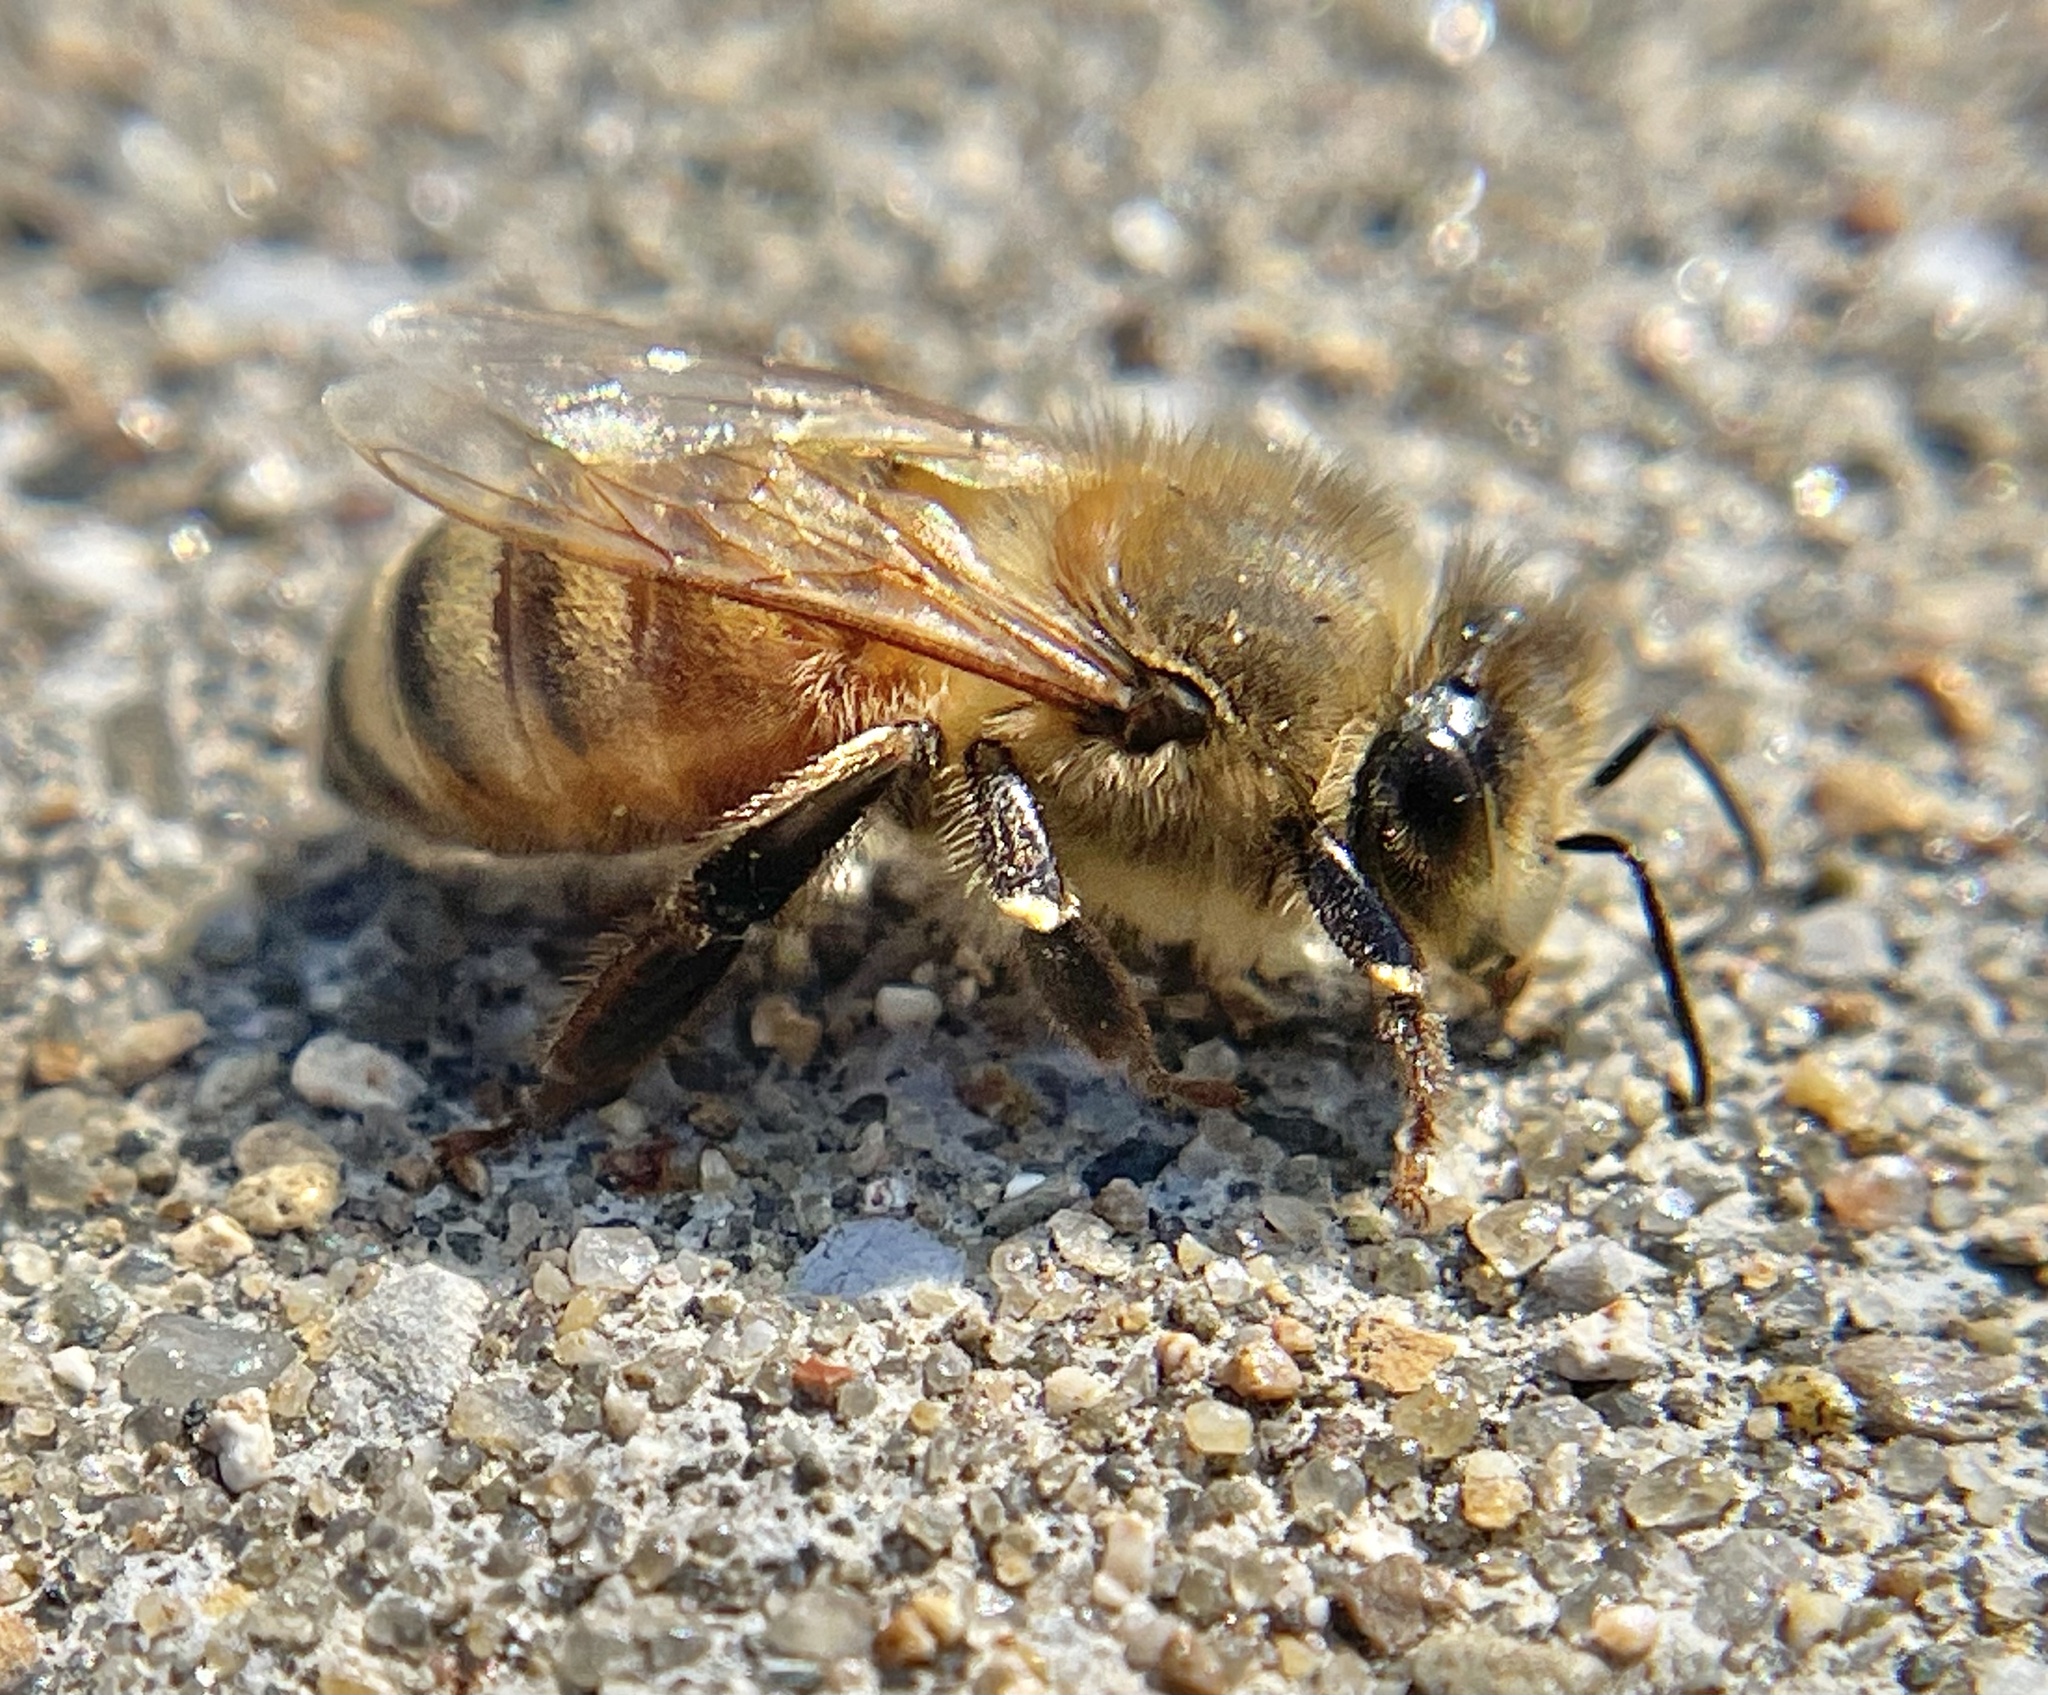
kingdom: Animalia
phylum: Arthropoda
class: Insecta
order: Hymenoptera
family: Apidae
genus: Apis
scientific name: Apis mellifera
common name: Honey bee
